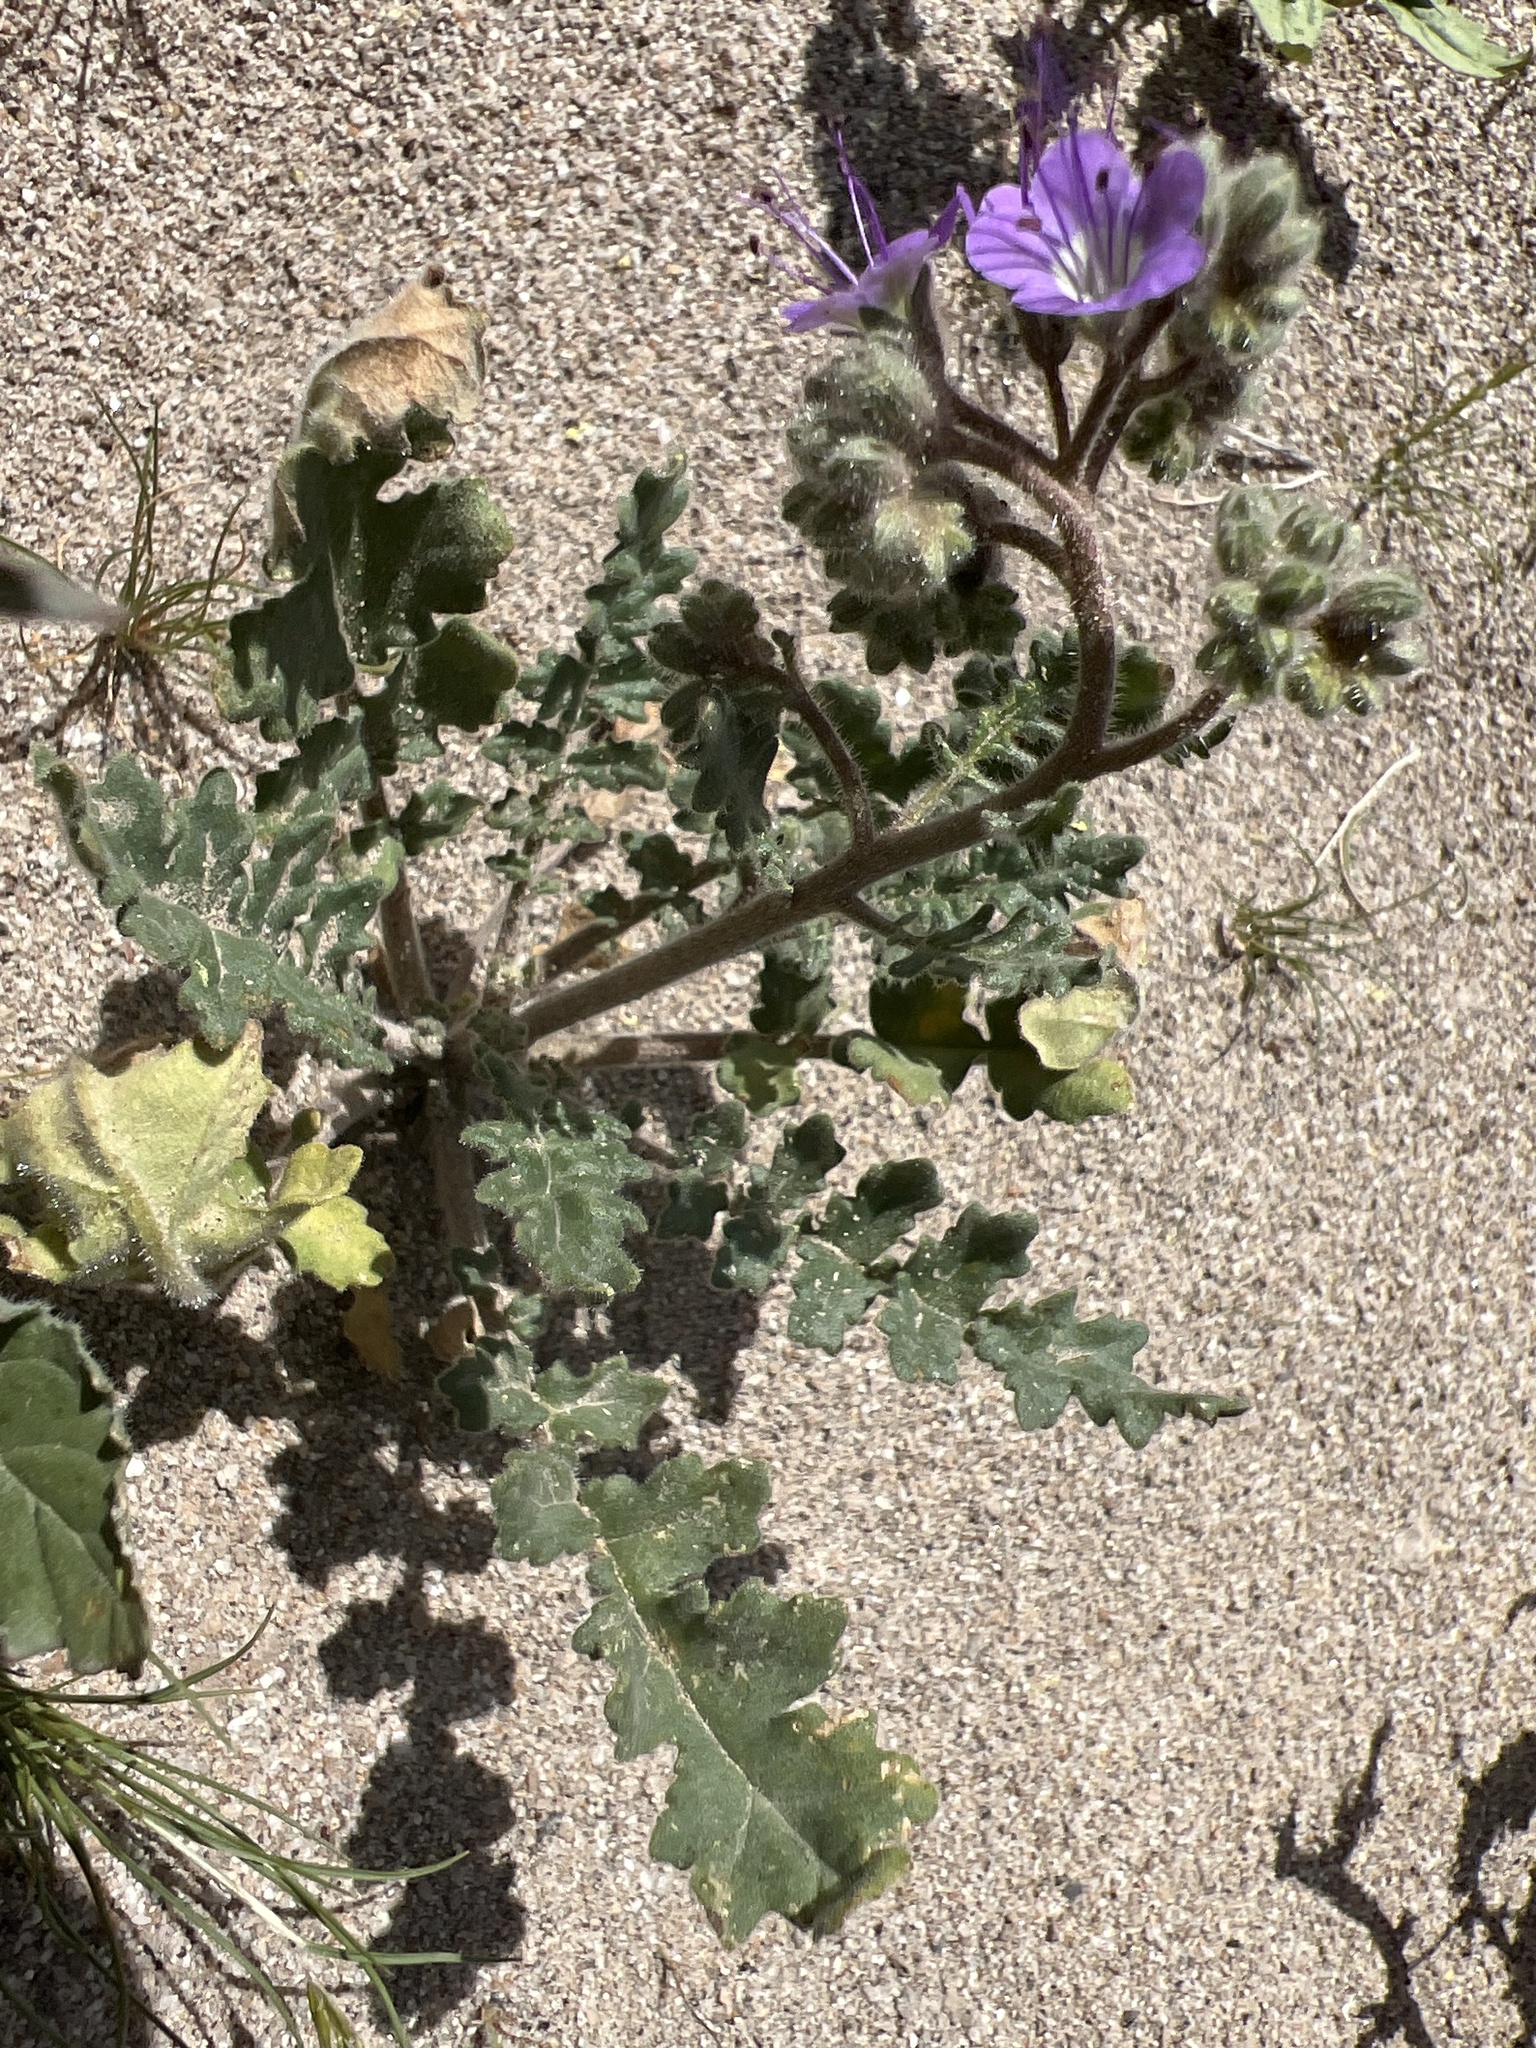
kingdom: Plantae
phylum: Tracheophyta
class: Magnoliopsida
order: Boraginales
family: Hydrophyllaceae
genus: Phacelia
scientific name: Phacelia crenulata
